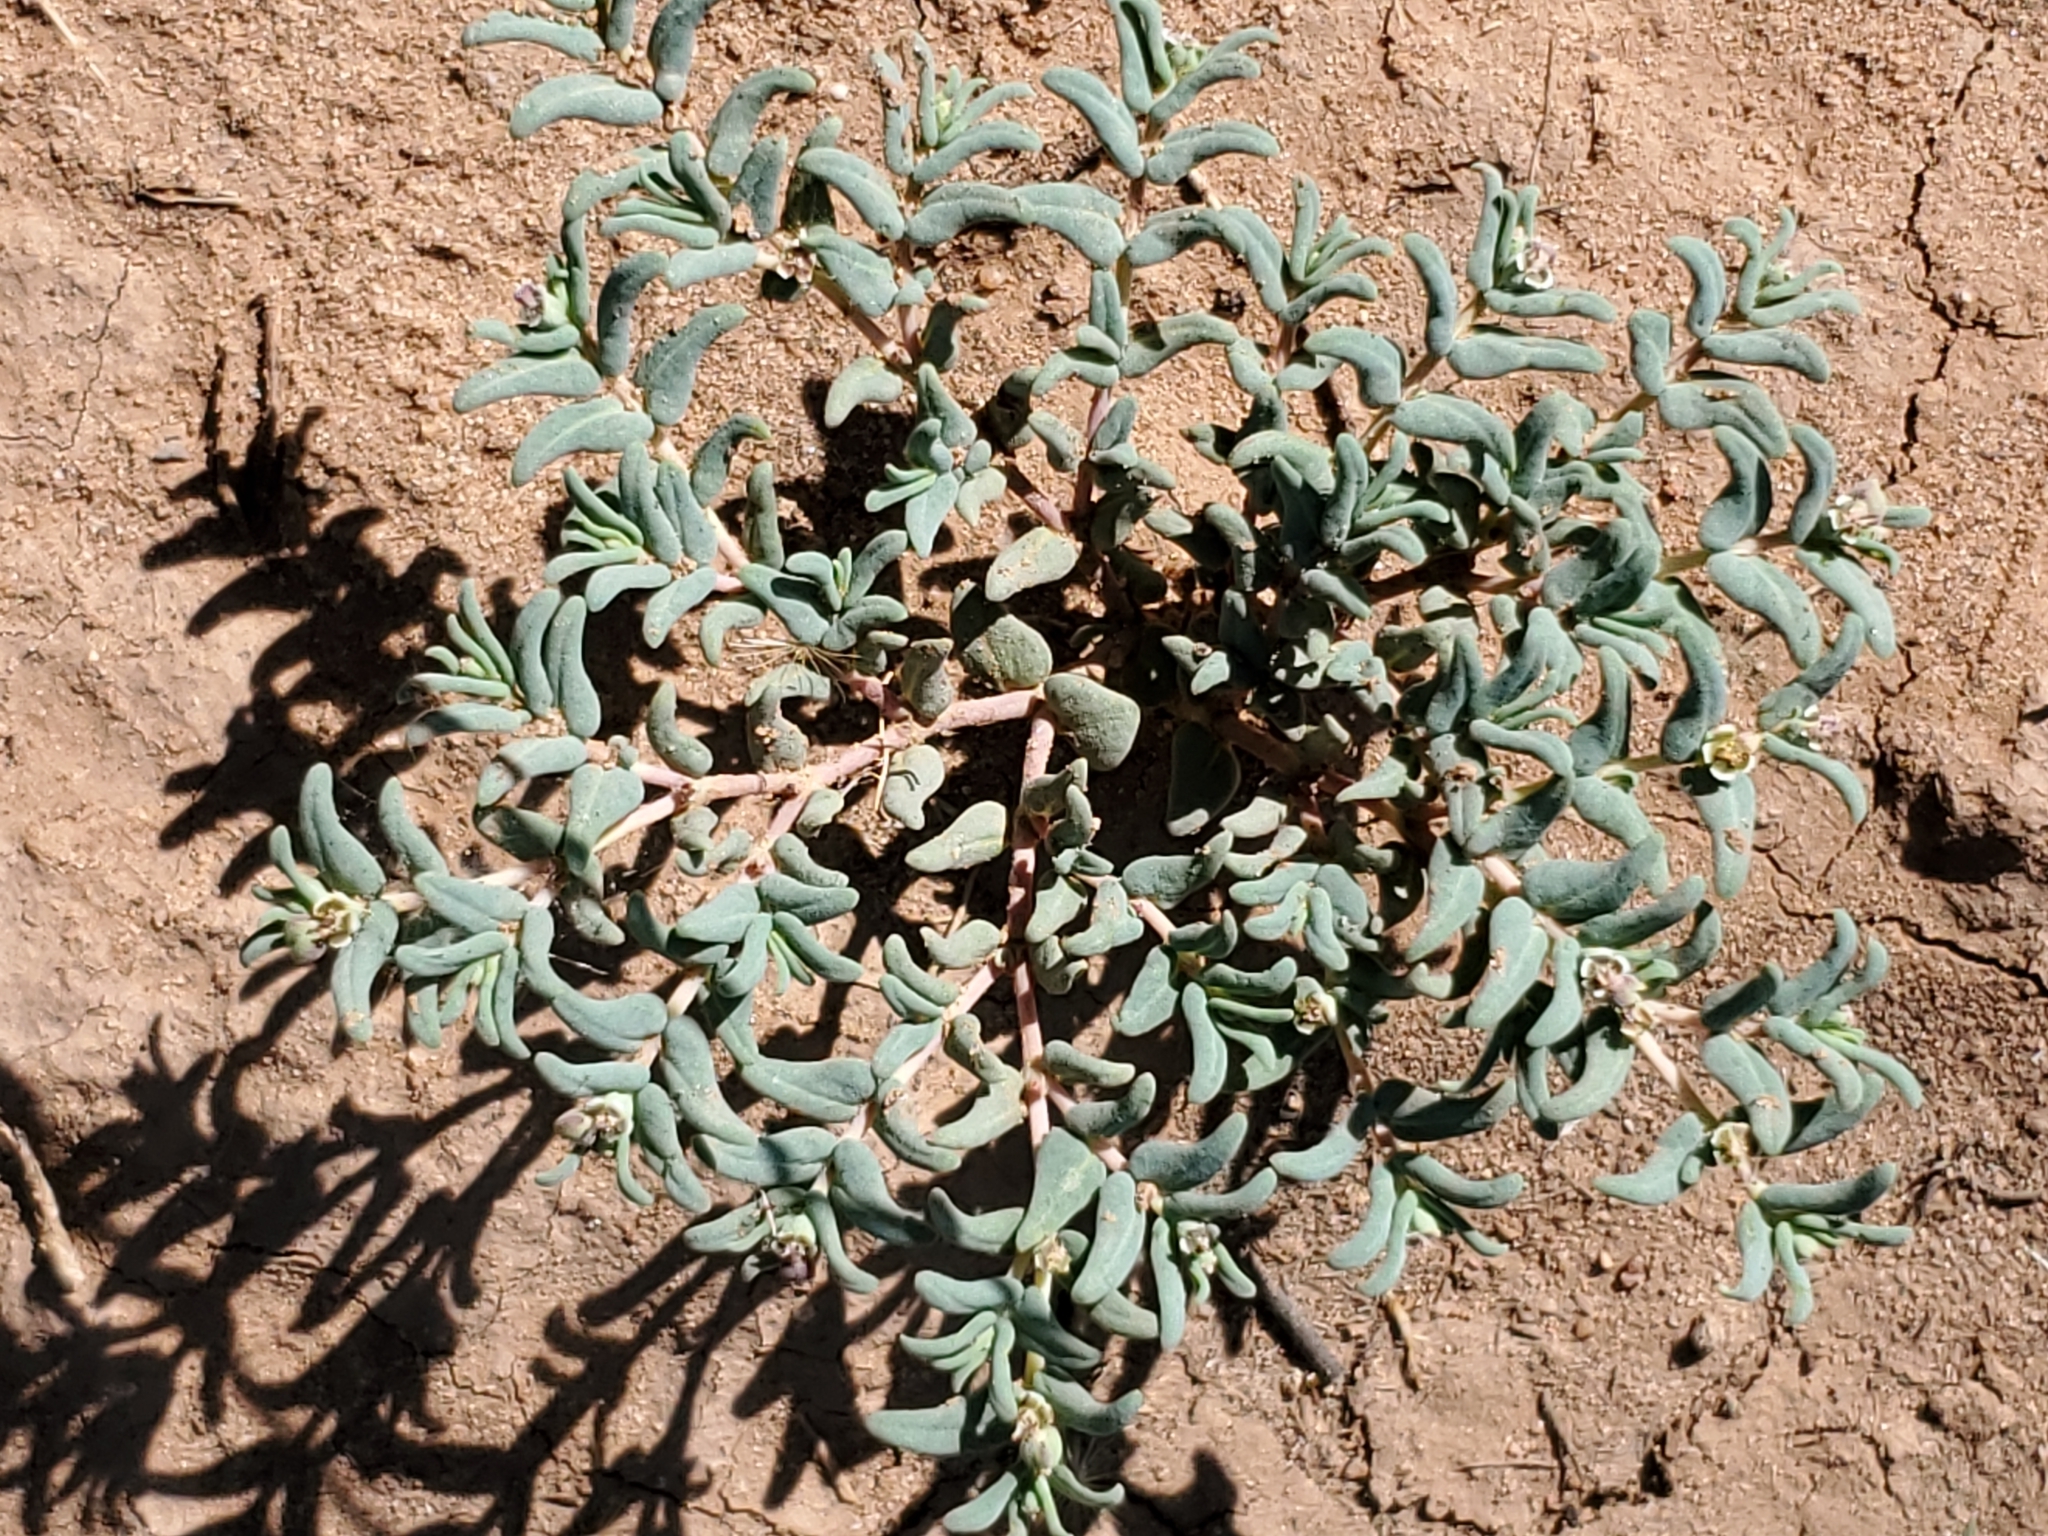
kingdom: Plantae
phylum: Tracheophyta
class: Magnoliopsida
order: Malpighiales
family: Euphorbiaceae
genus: Euphorbia
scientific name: Euphorbia lata
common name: Hoary euphorbia
